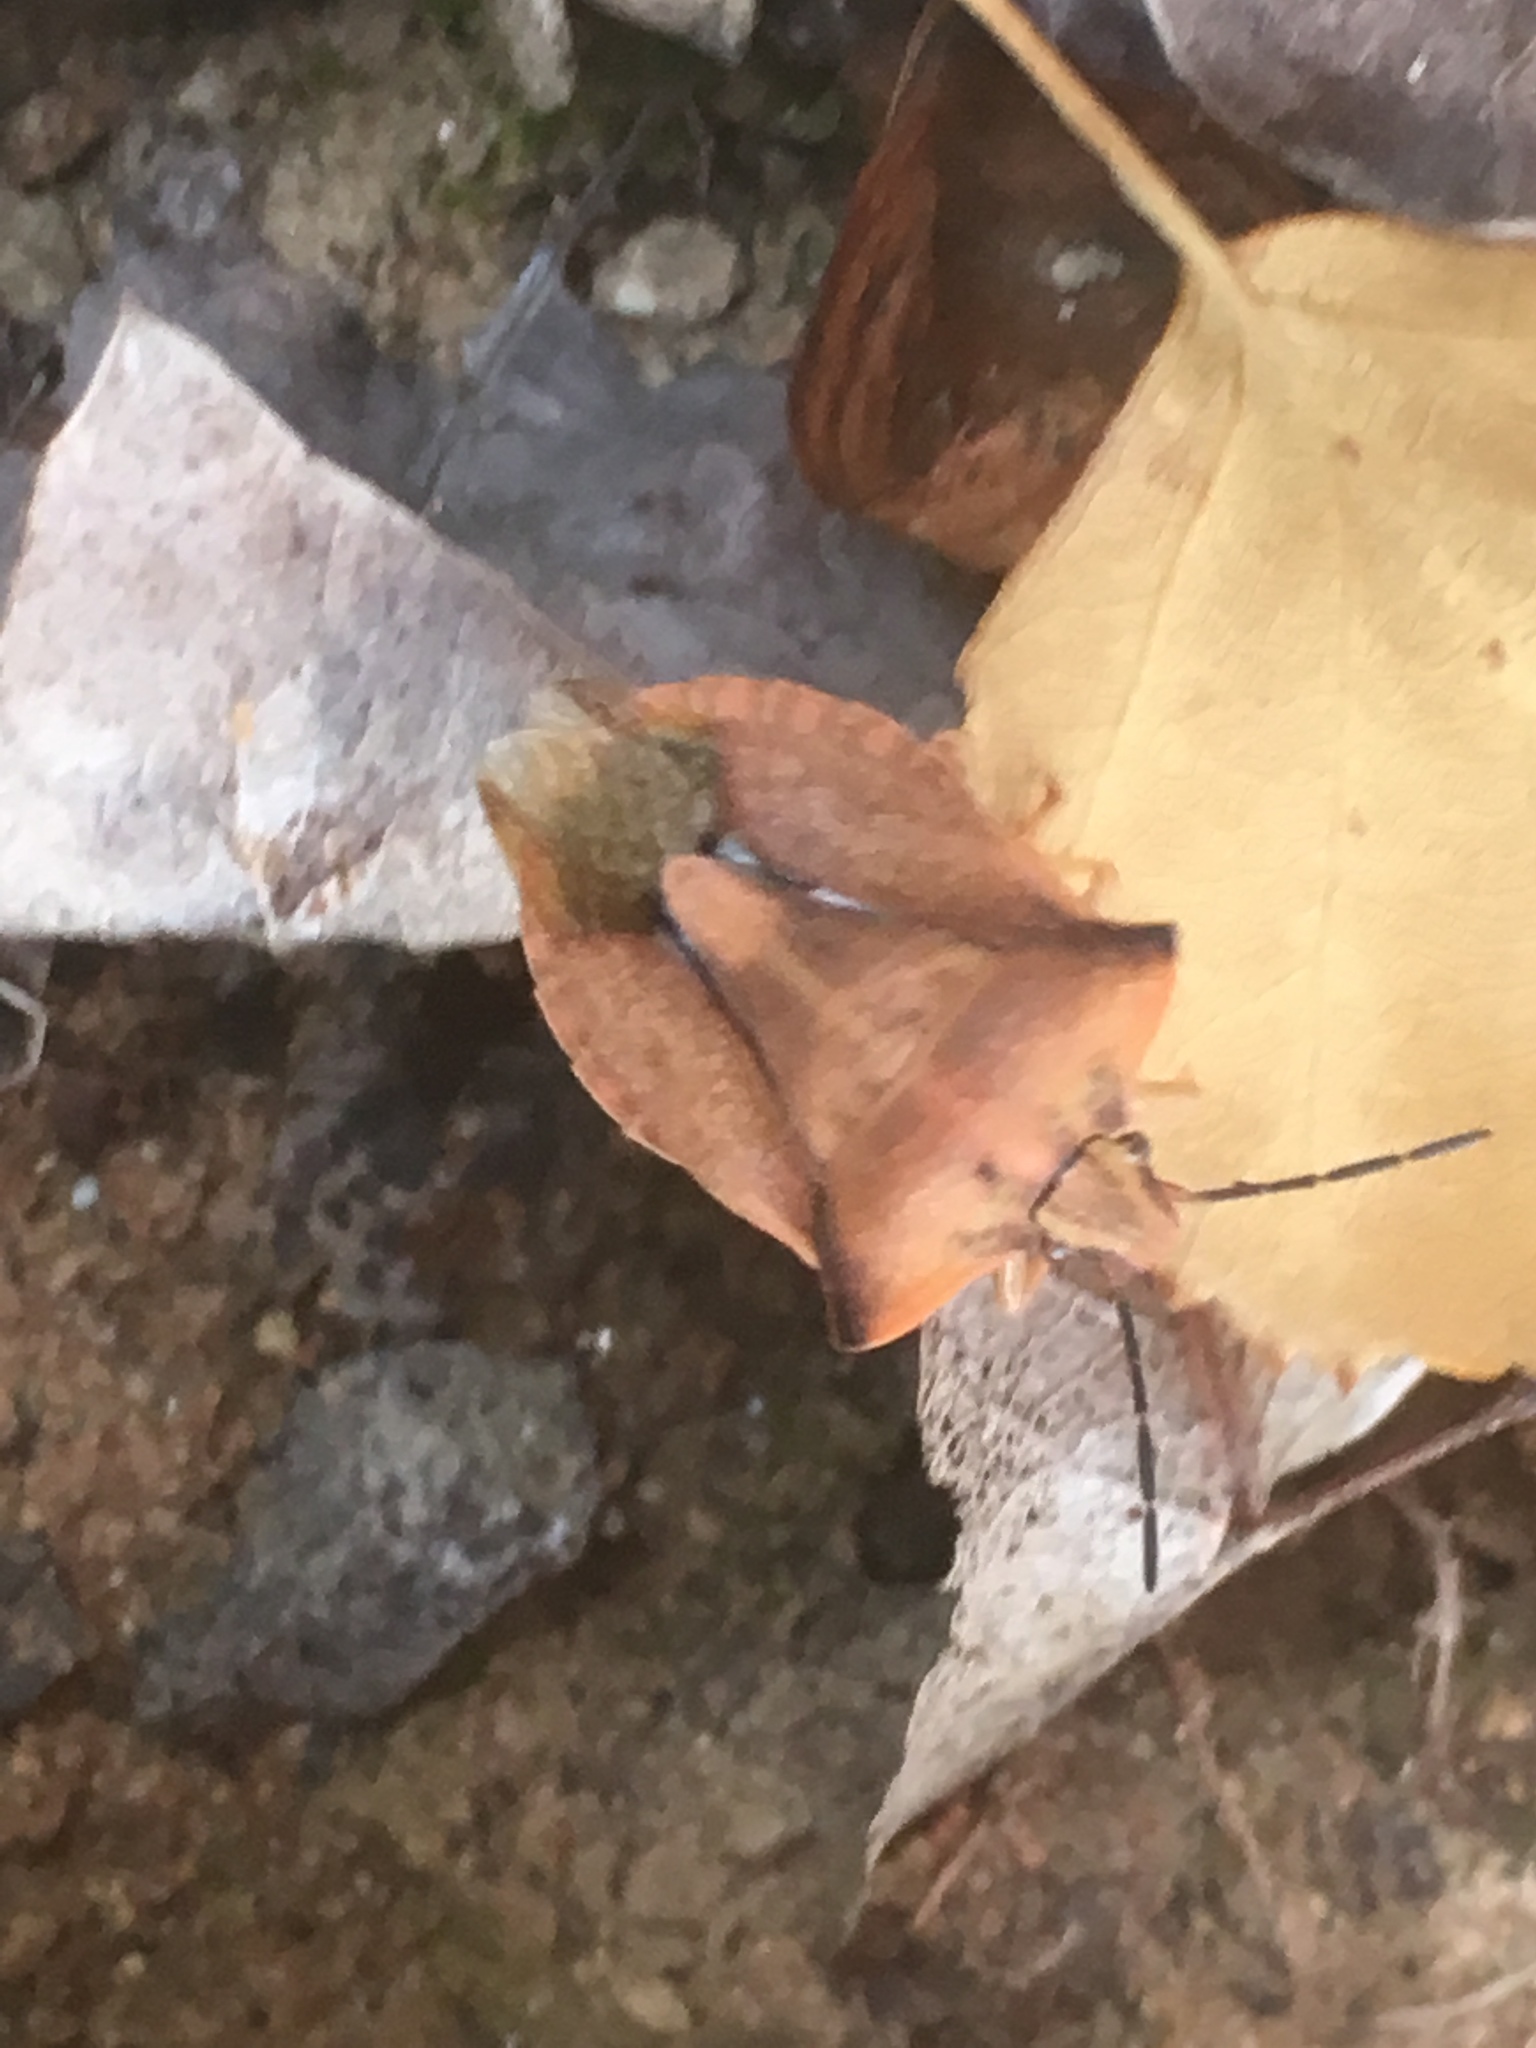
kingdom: Animalia
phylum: Arthropoda
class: Insecta
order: Hemiptera
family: Pentatomidae
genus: Carpocoris
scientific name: Carpocoris fuscispinus
